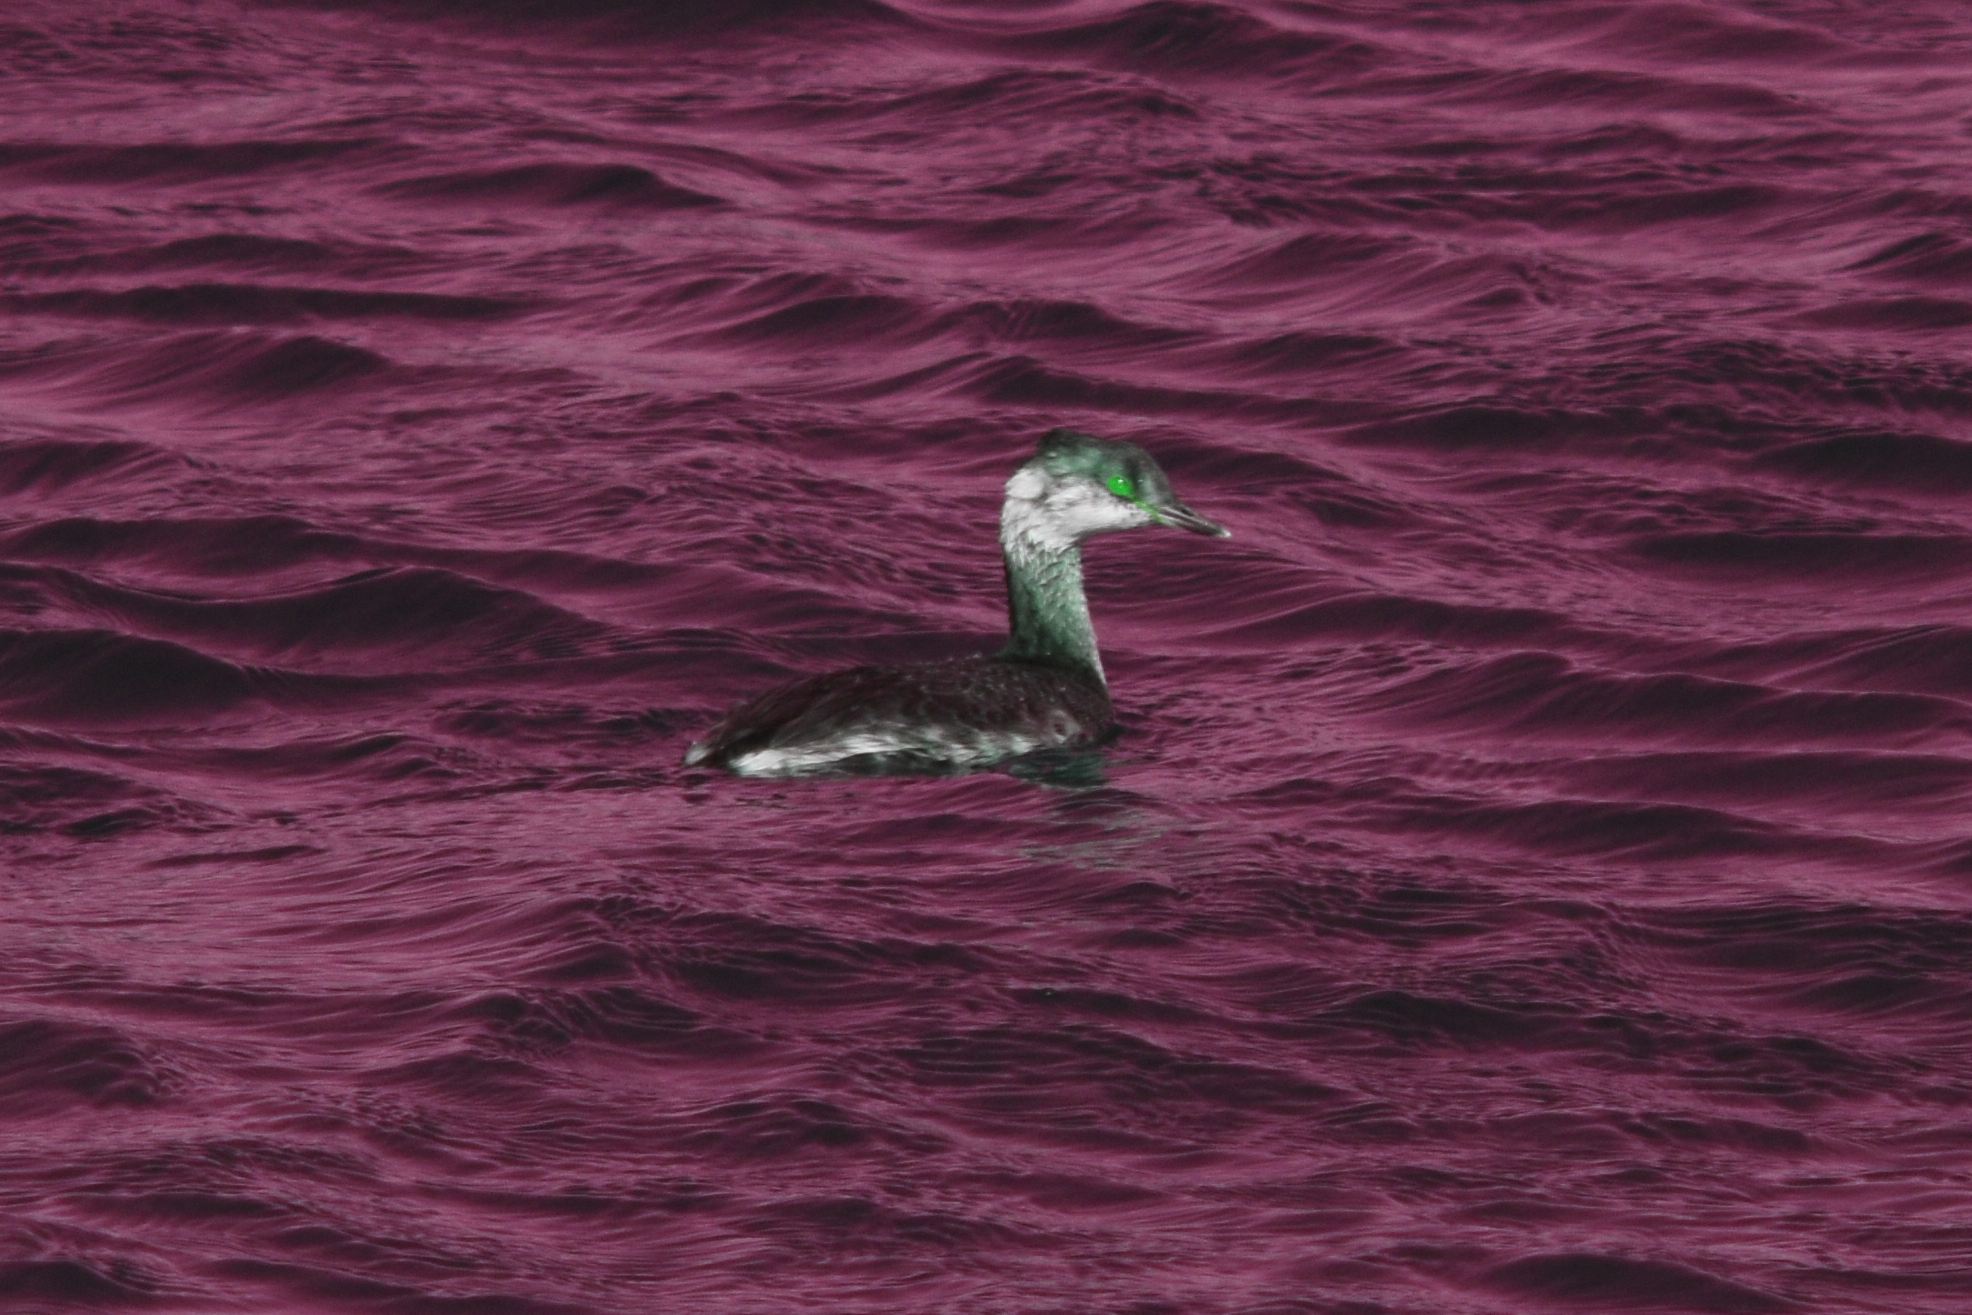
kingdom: Animalia
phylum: Chordata
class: Aves
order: Podicipediformes
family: Podicipedidae
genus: Podiceps
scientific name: Podiceps auritus
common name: Horned grebe
